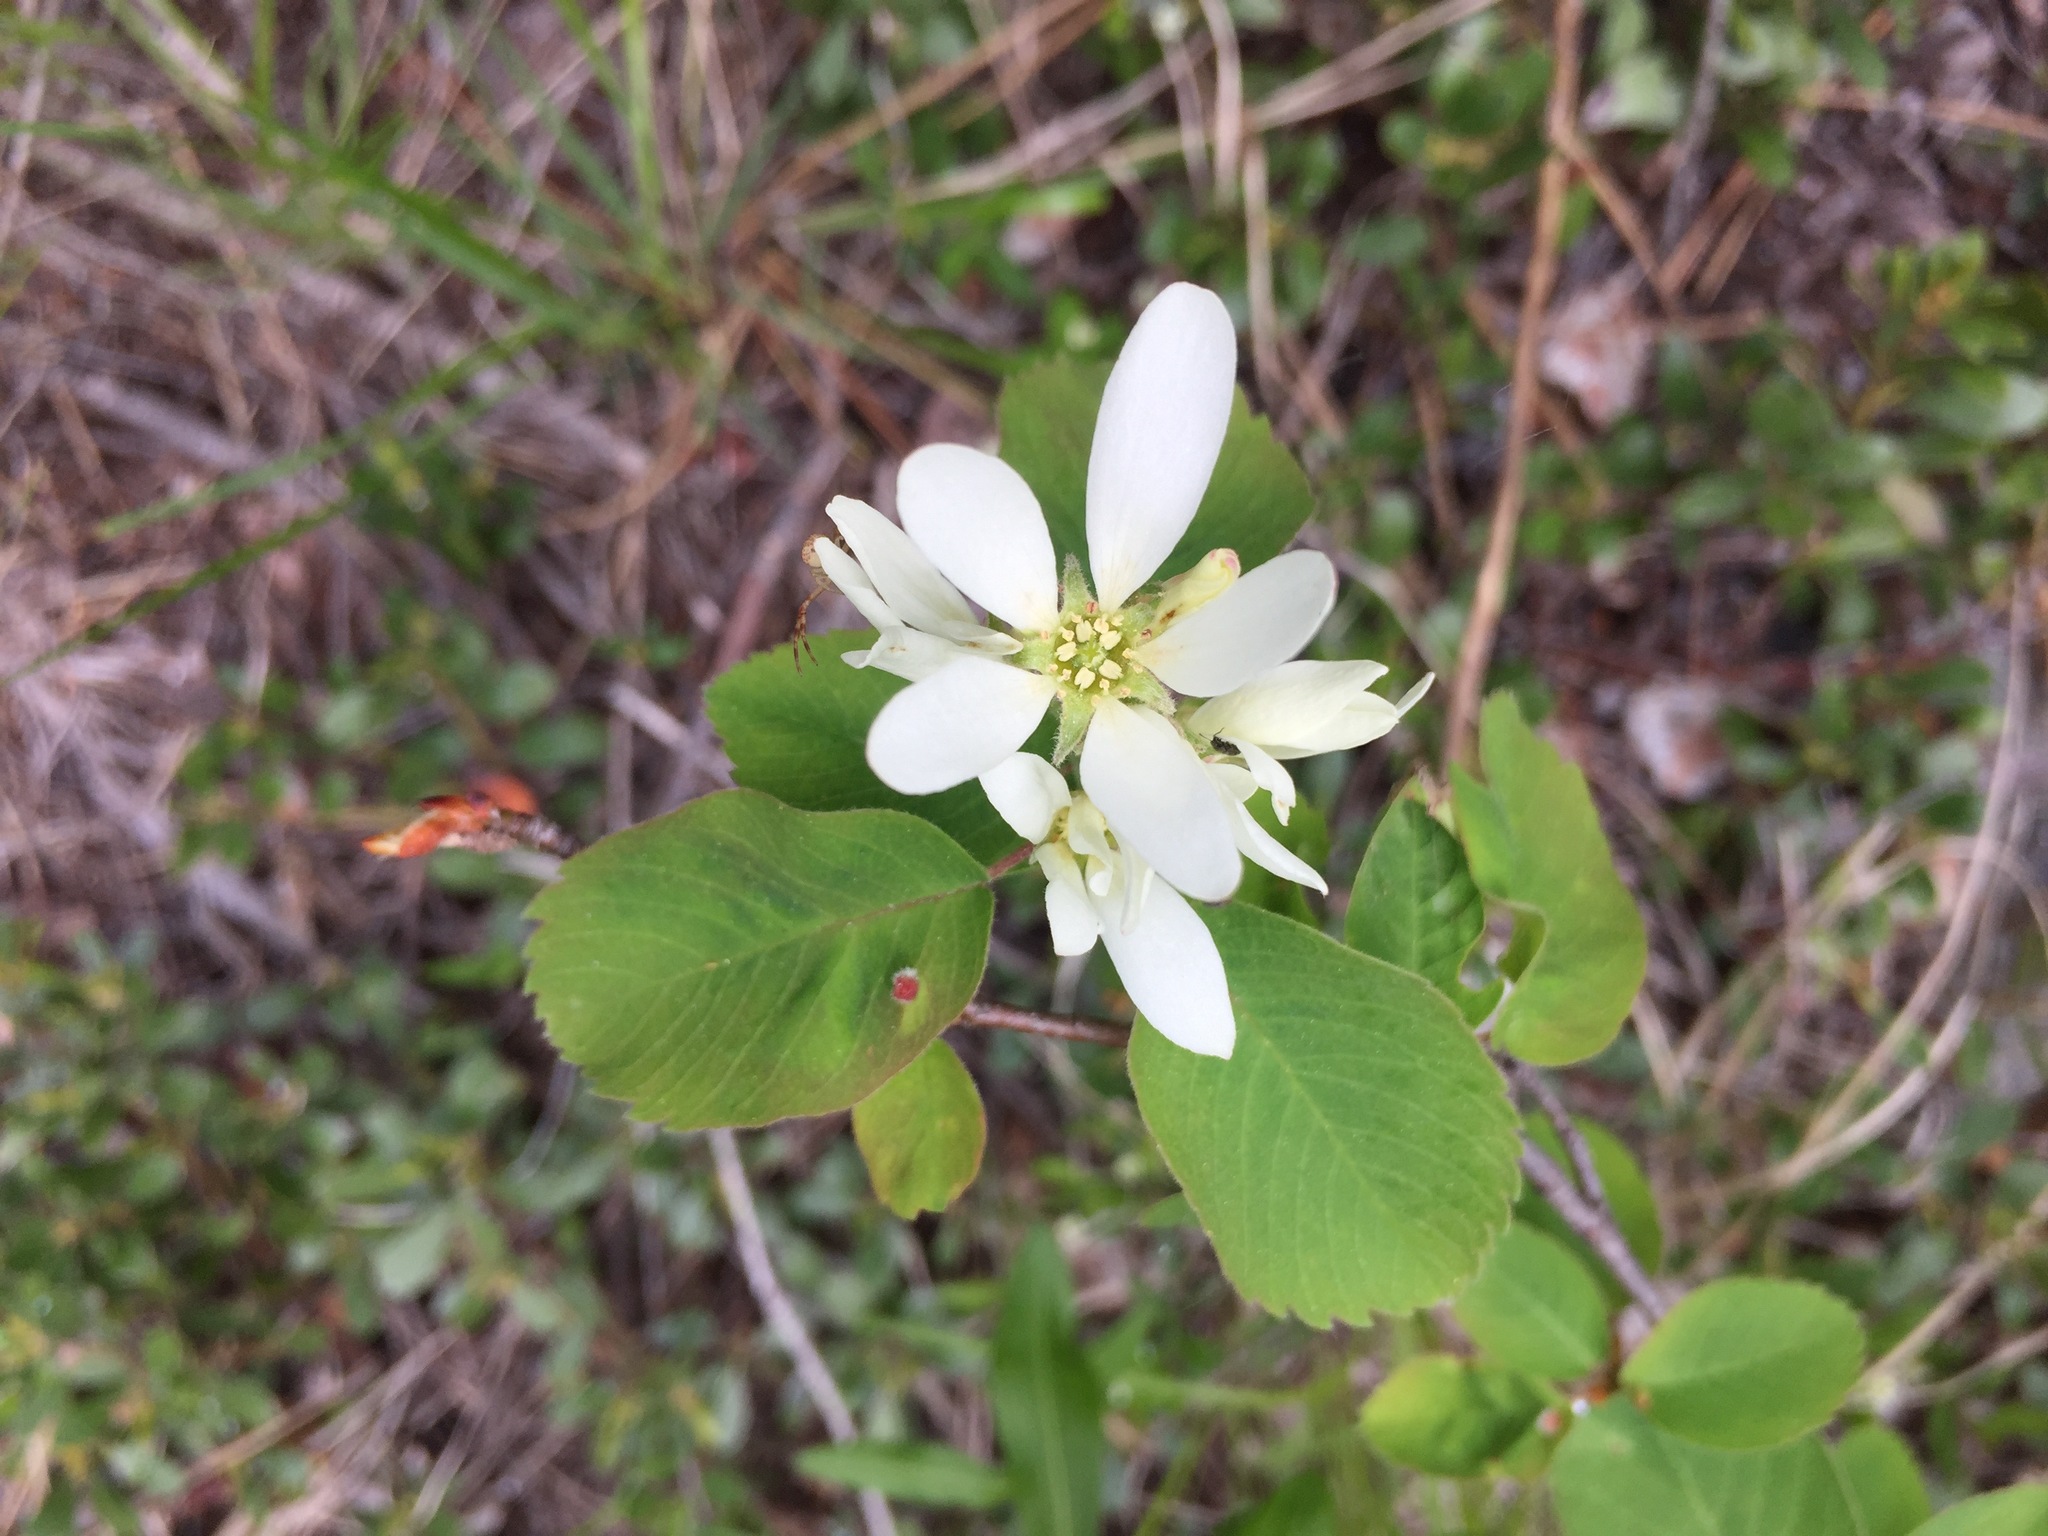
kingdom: Plantae
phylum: Tracheophyta
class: Magnoliopsida
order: Rosales
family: Rosaceae
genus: Amelanchier
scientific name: Amelanchier alnifolia
